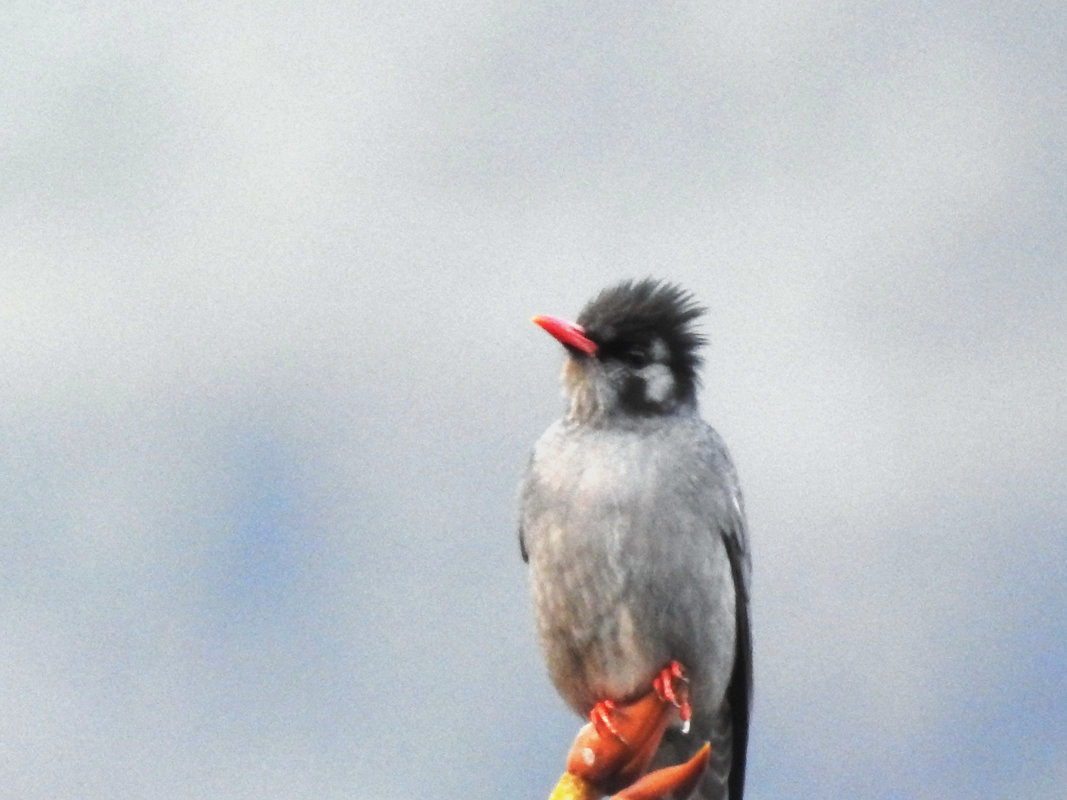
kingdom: Animalia
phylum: Chordata
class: Aves
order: Passeriformes
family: Pycnonotidae
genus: Hypsipetes
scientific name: Hypsipetes leucocephalus
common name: Black bulbul
